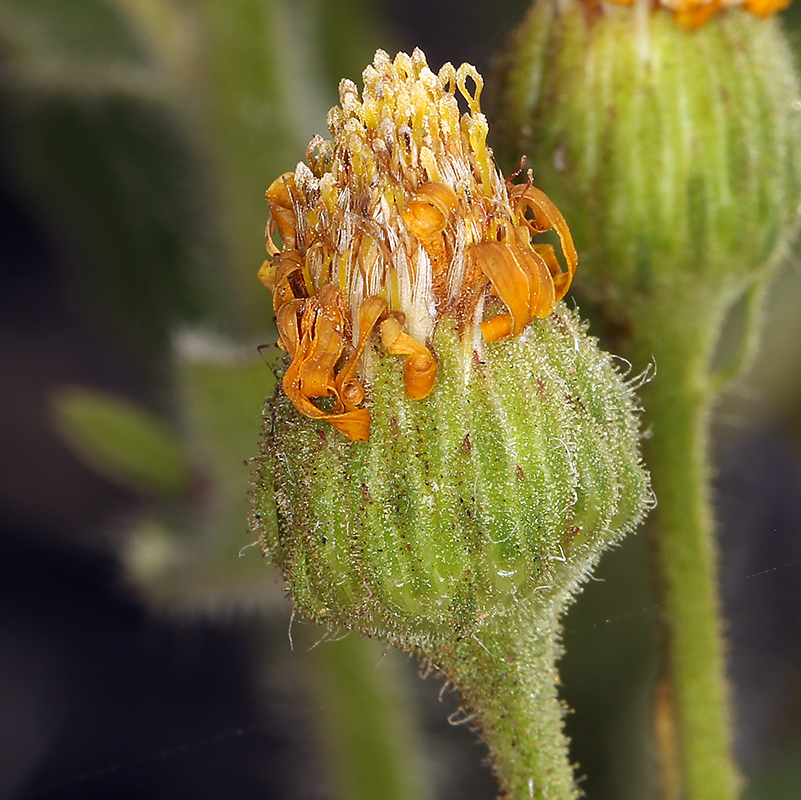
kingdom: Plantae
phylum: Tracheophyta
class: Magnoliopsida
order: Asterales
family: Asteraceae
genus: Heterotheca
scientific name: Heterotheca grandiflora
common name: Telegraphweed
